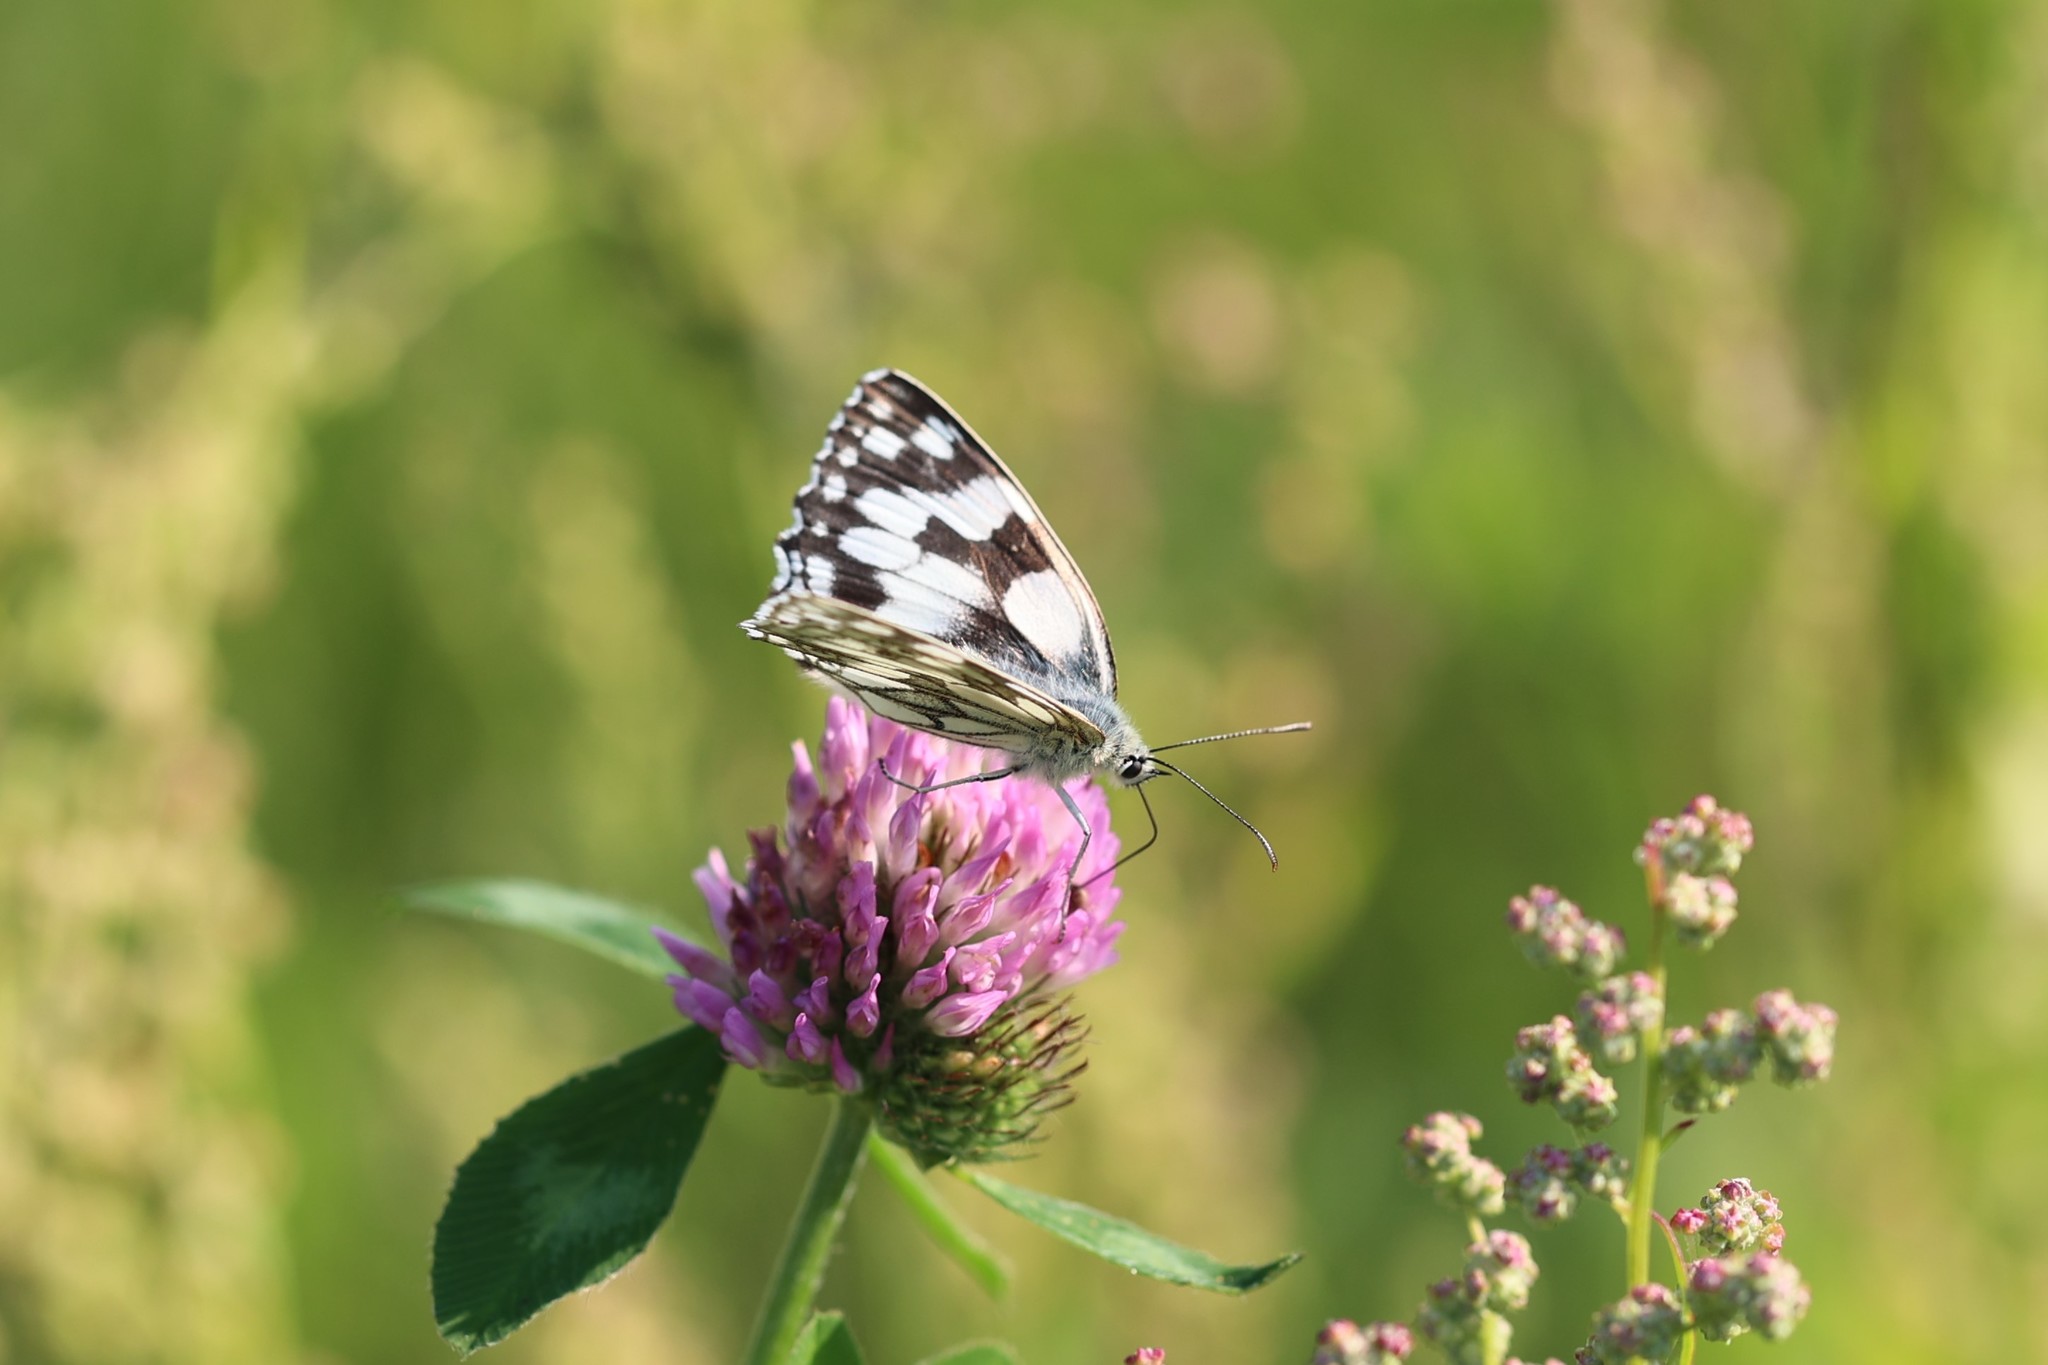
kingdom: Animalia
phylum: Arthropoda
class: Insecta
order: Lepidoptera
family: Nymphalidae
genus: Melanargia
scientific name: Melanargia galathea
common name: Marbled white
